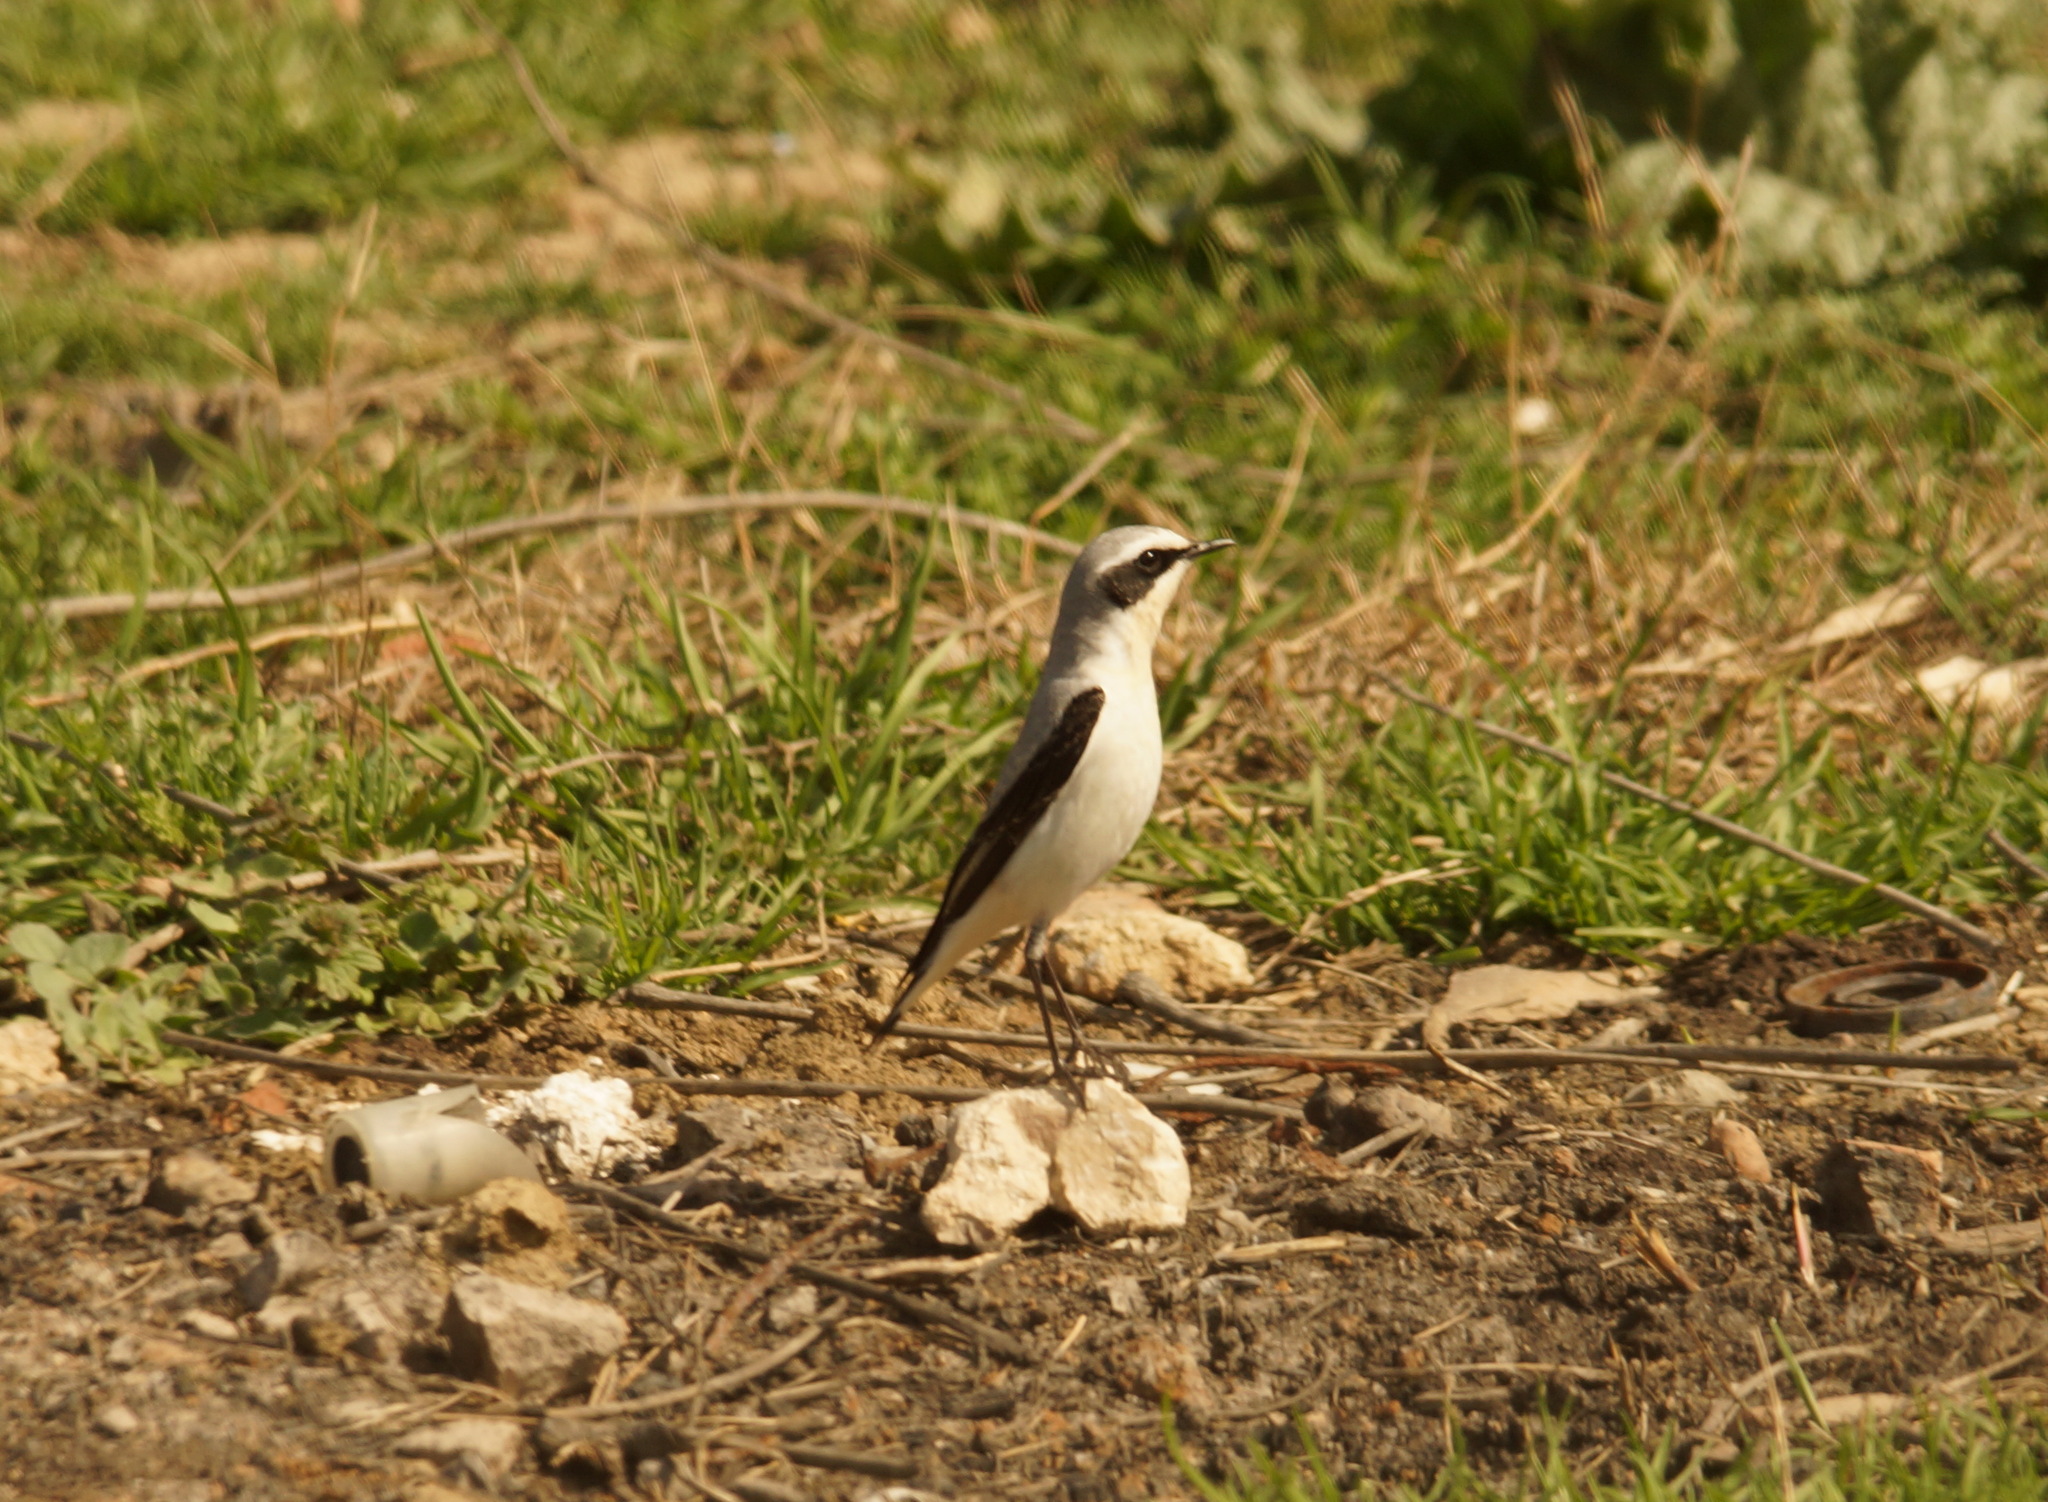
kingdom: Animalia
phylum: Chordata
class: Aves
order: Passeriformes
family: Muscicapidae
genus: Oenanthe
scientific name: Oenanthe oenanthe
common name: Northern wheatear
